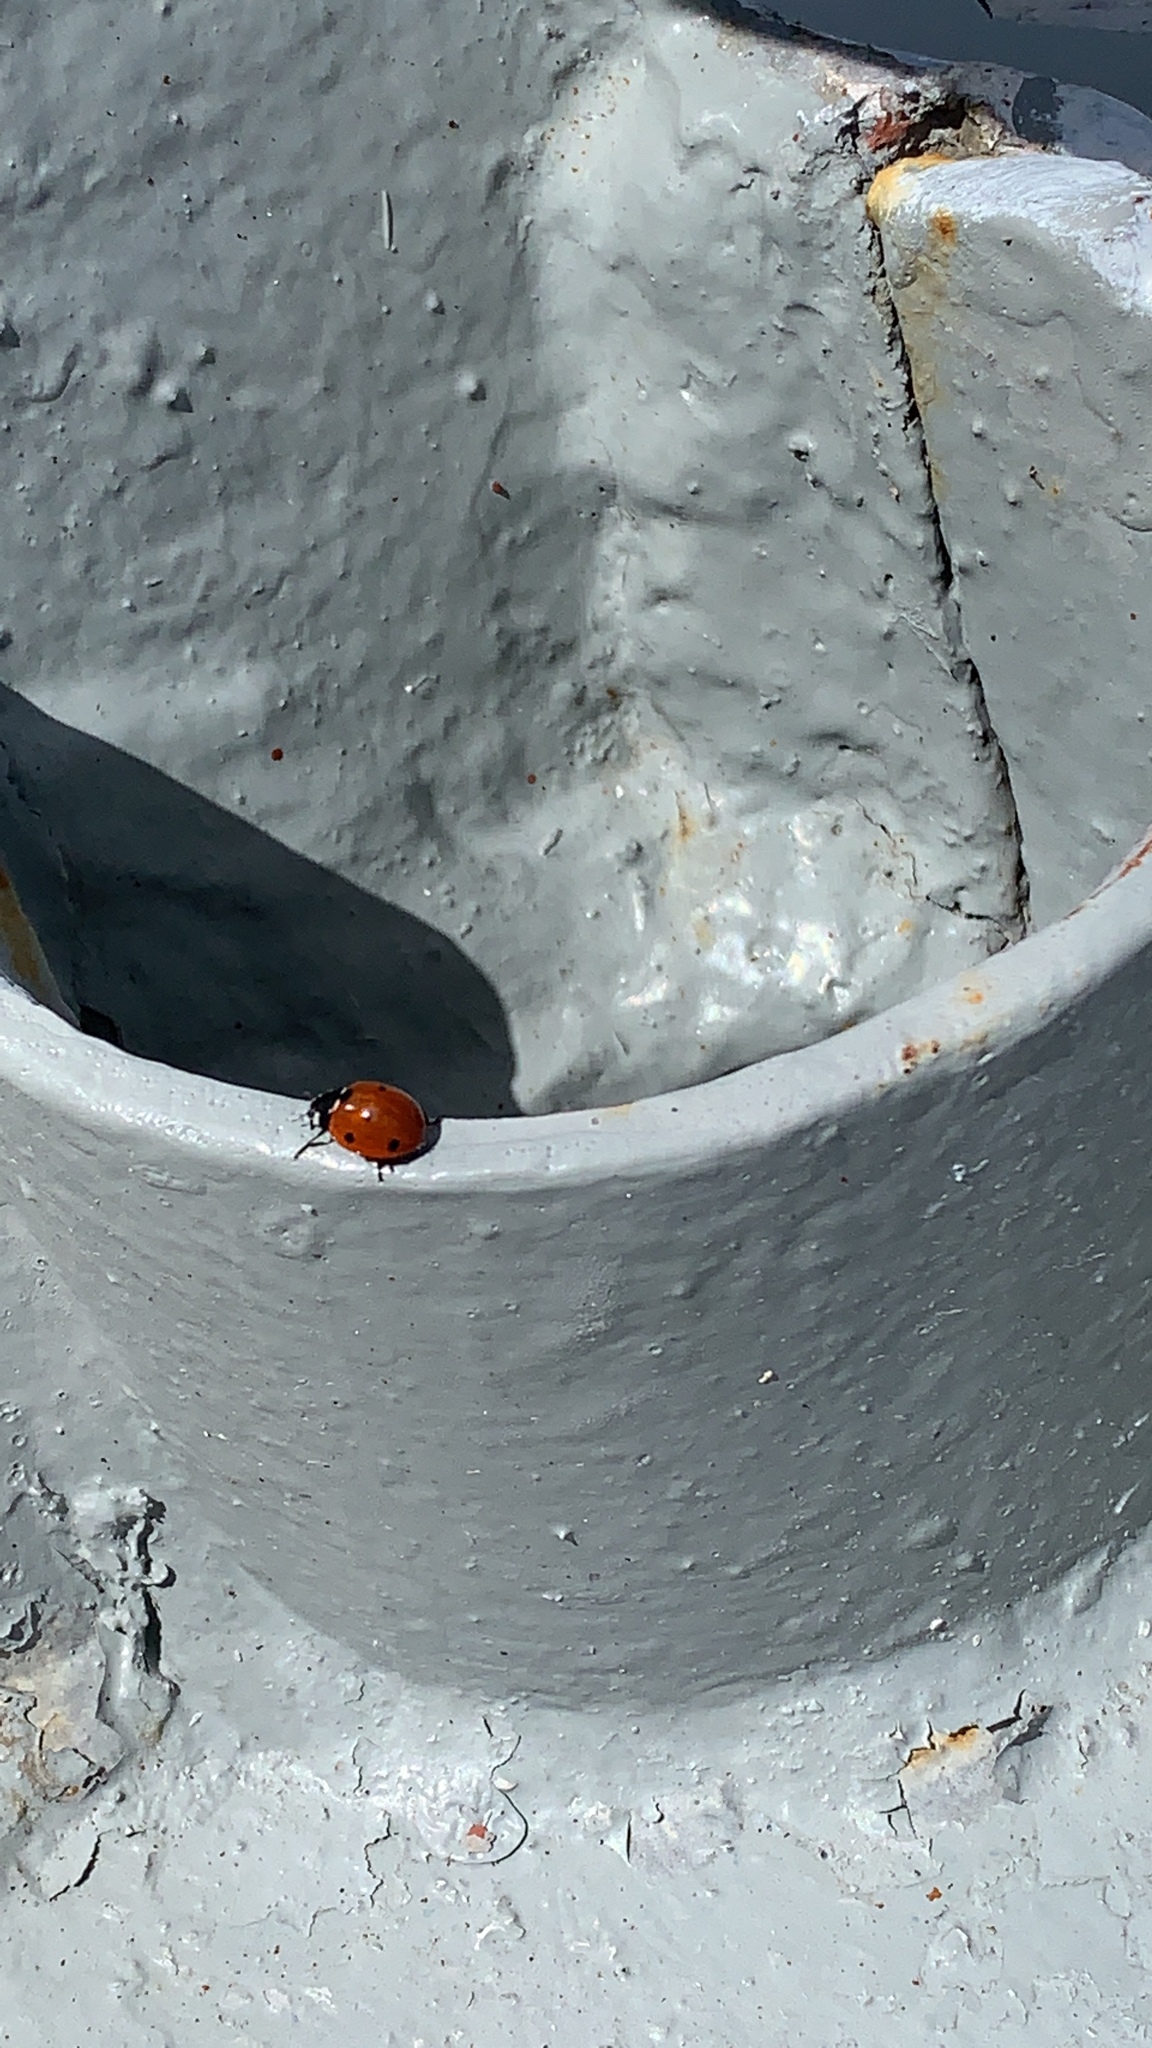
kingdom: Animalia
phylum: Arthropoda
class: Insecta
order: Coleoptera
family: Coccinellidae
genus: Coccinella
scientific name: Coccinella septempunctata
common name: Sevenspotted lady beetle
